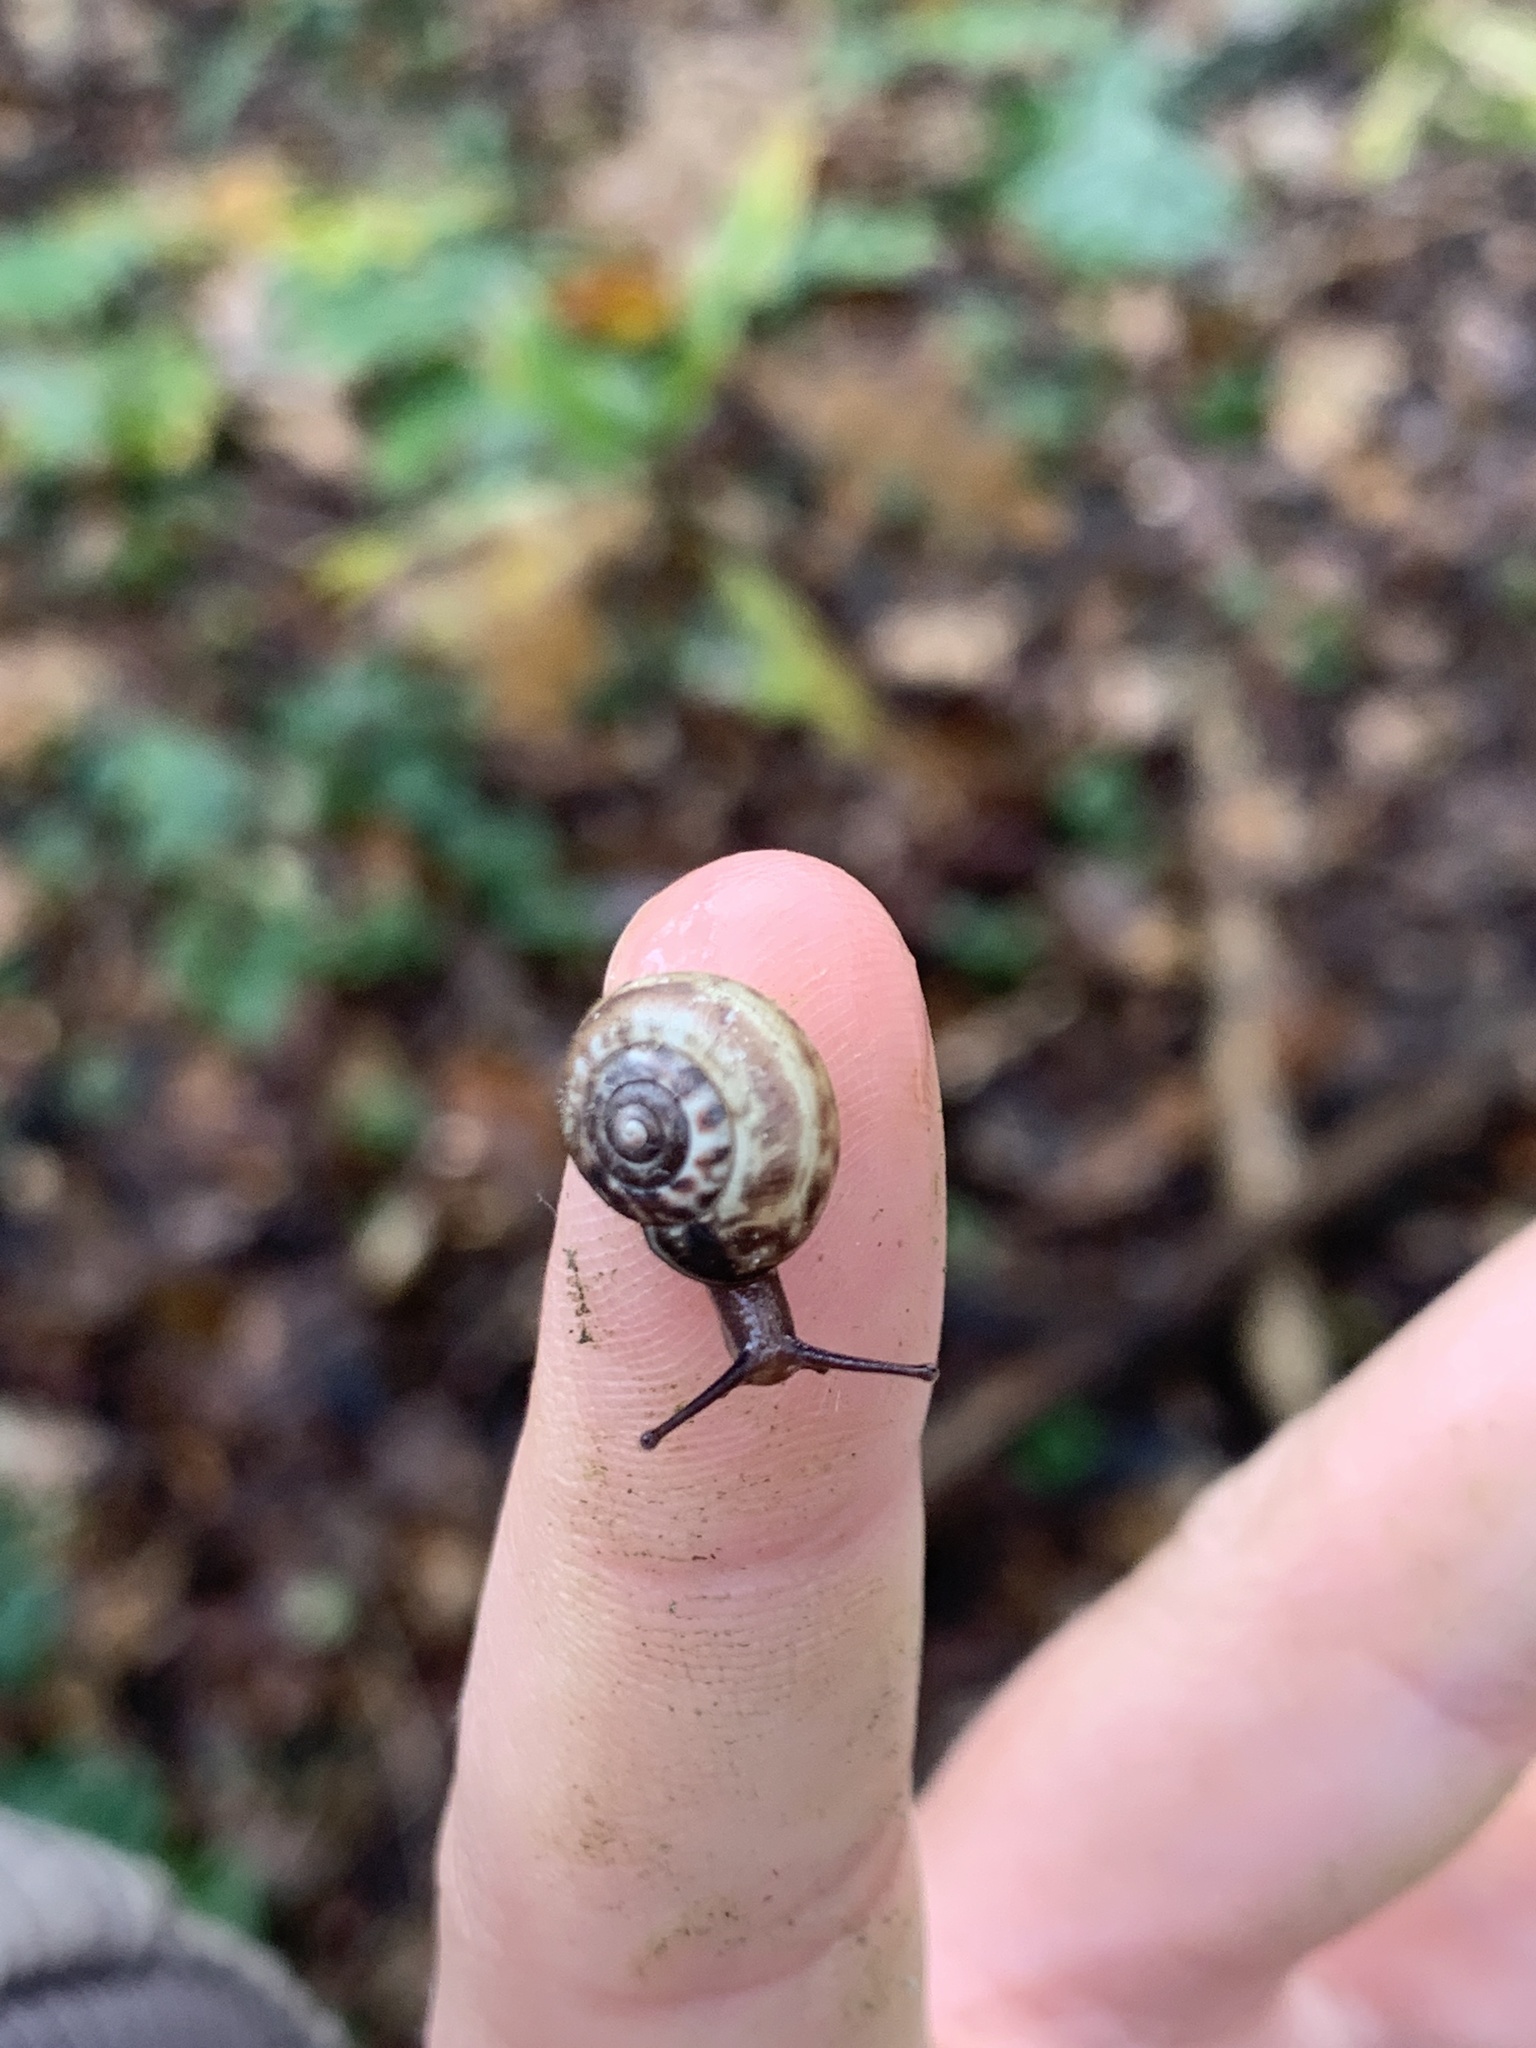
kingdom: Animalia
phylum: Mollusca
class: Gastropoda
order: Stylommatophora
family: Hygromiidae
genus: Monacha
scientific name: Monacha cantiana
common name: Kentish snail
